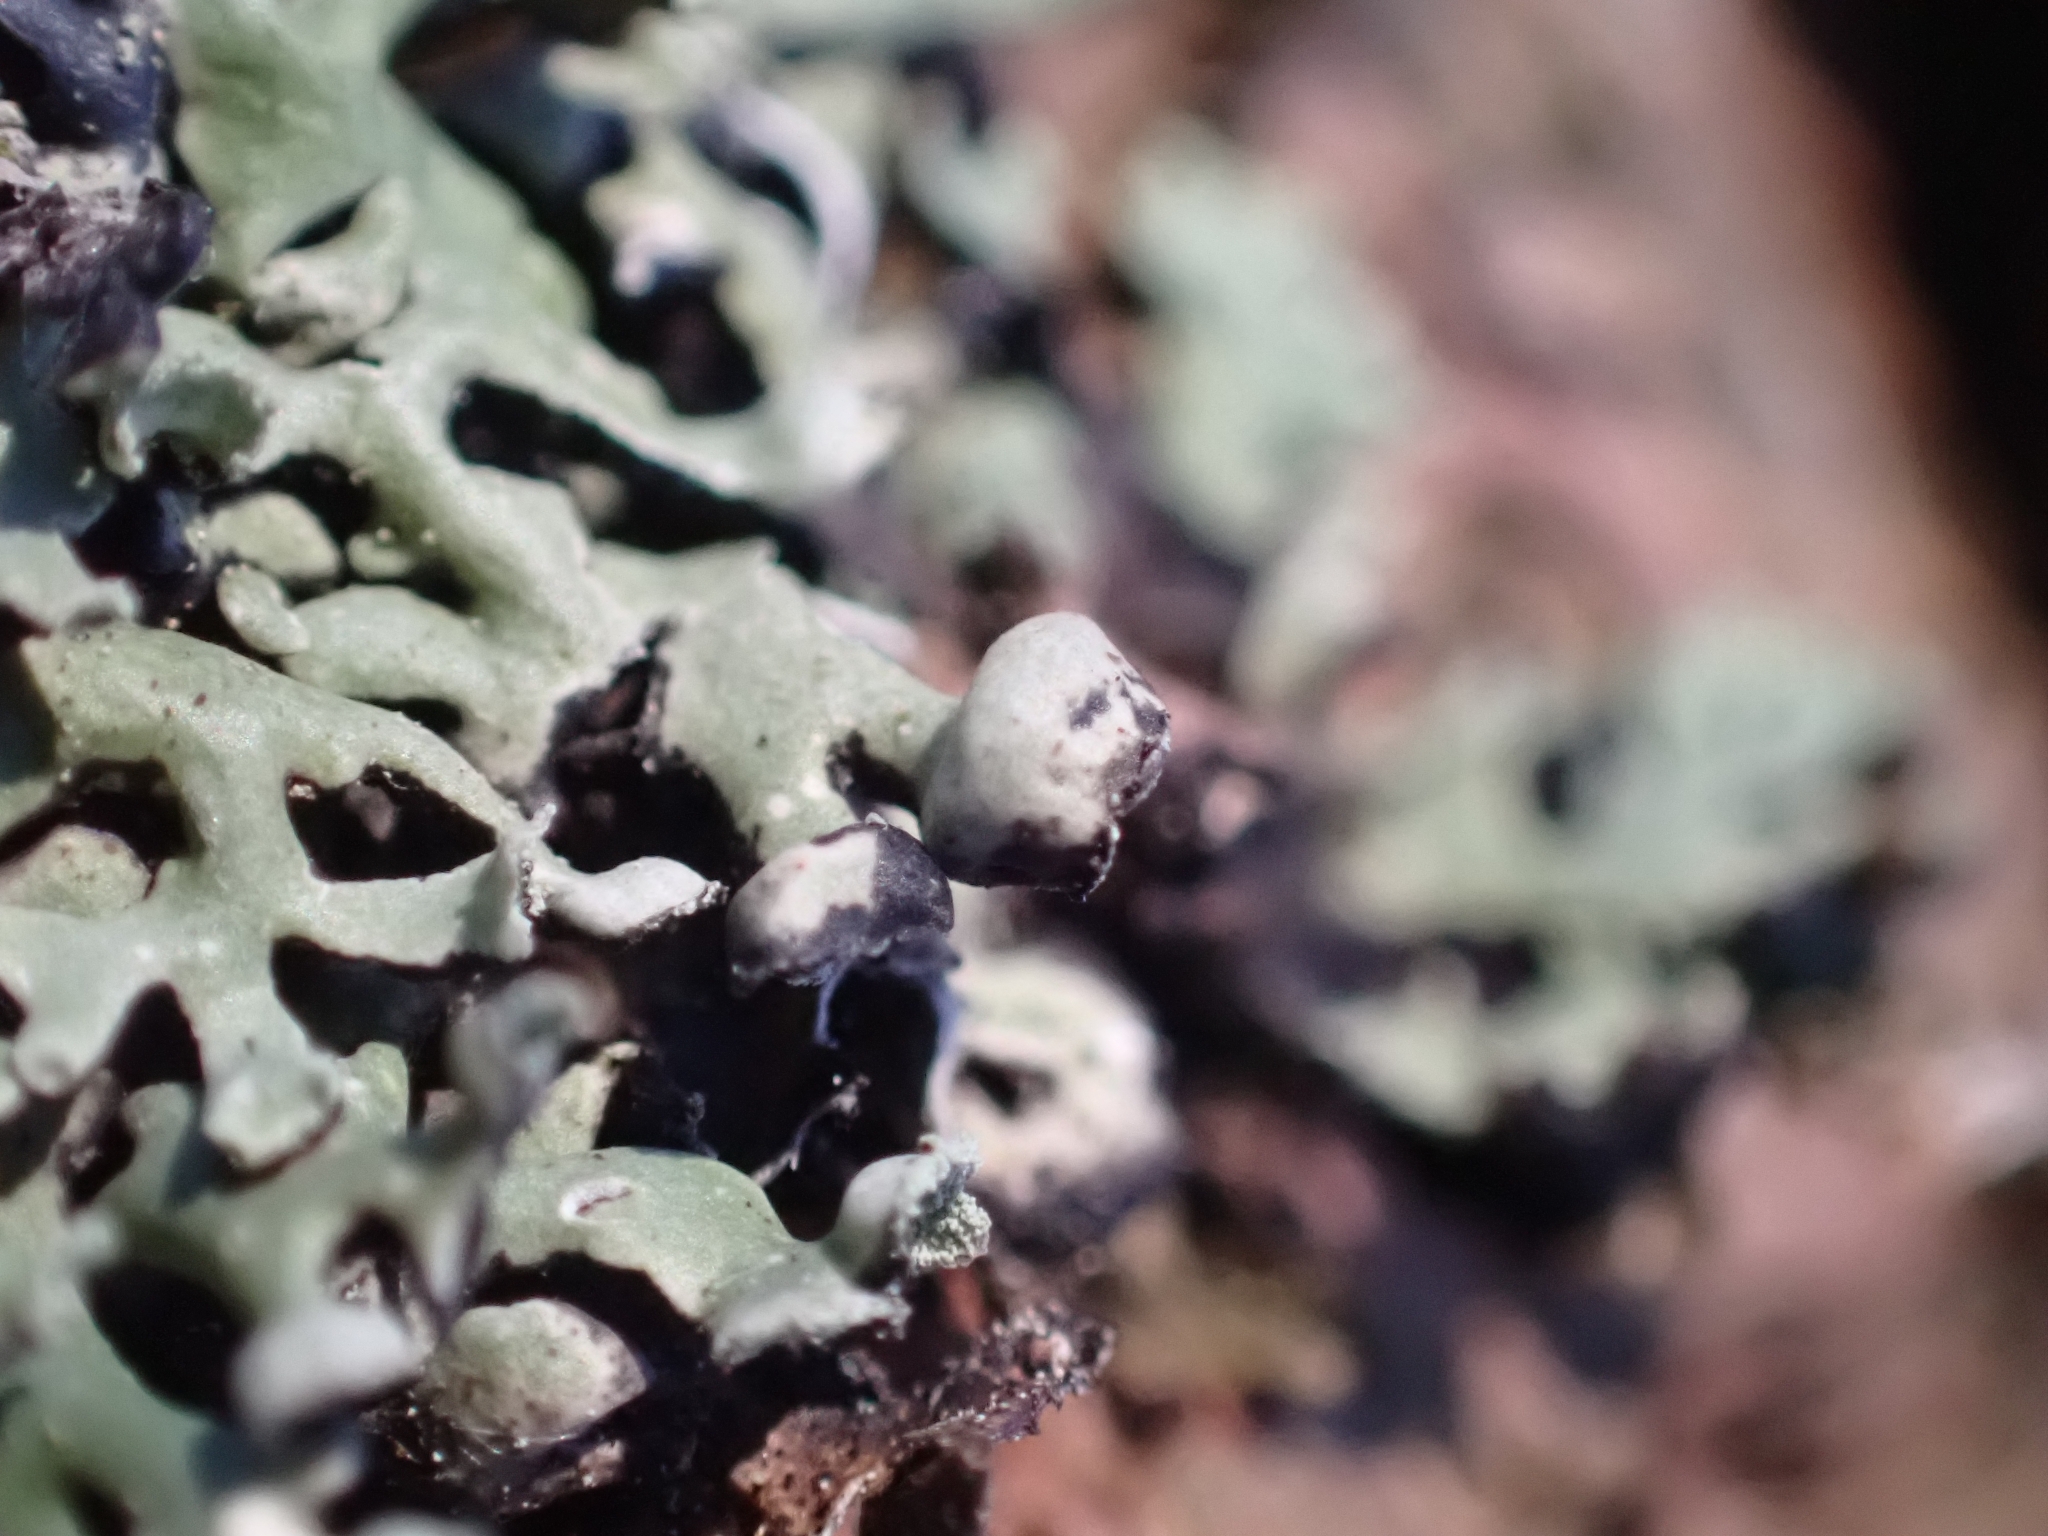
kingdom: Fungi
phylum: Ascomycota
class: Lecanoromycetes
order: Lecanorales
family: Parmeliaceae
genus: Hypogymnia
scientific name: Hypogymnia physodes
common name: Dark crottle
